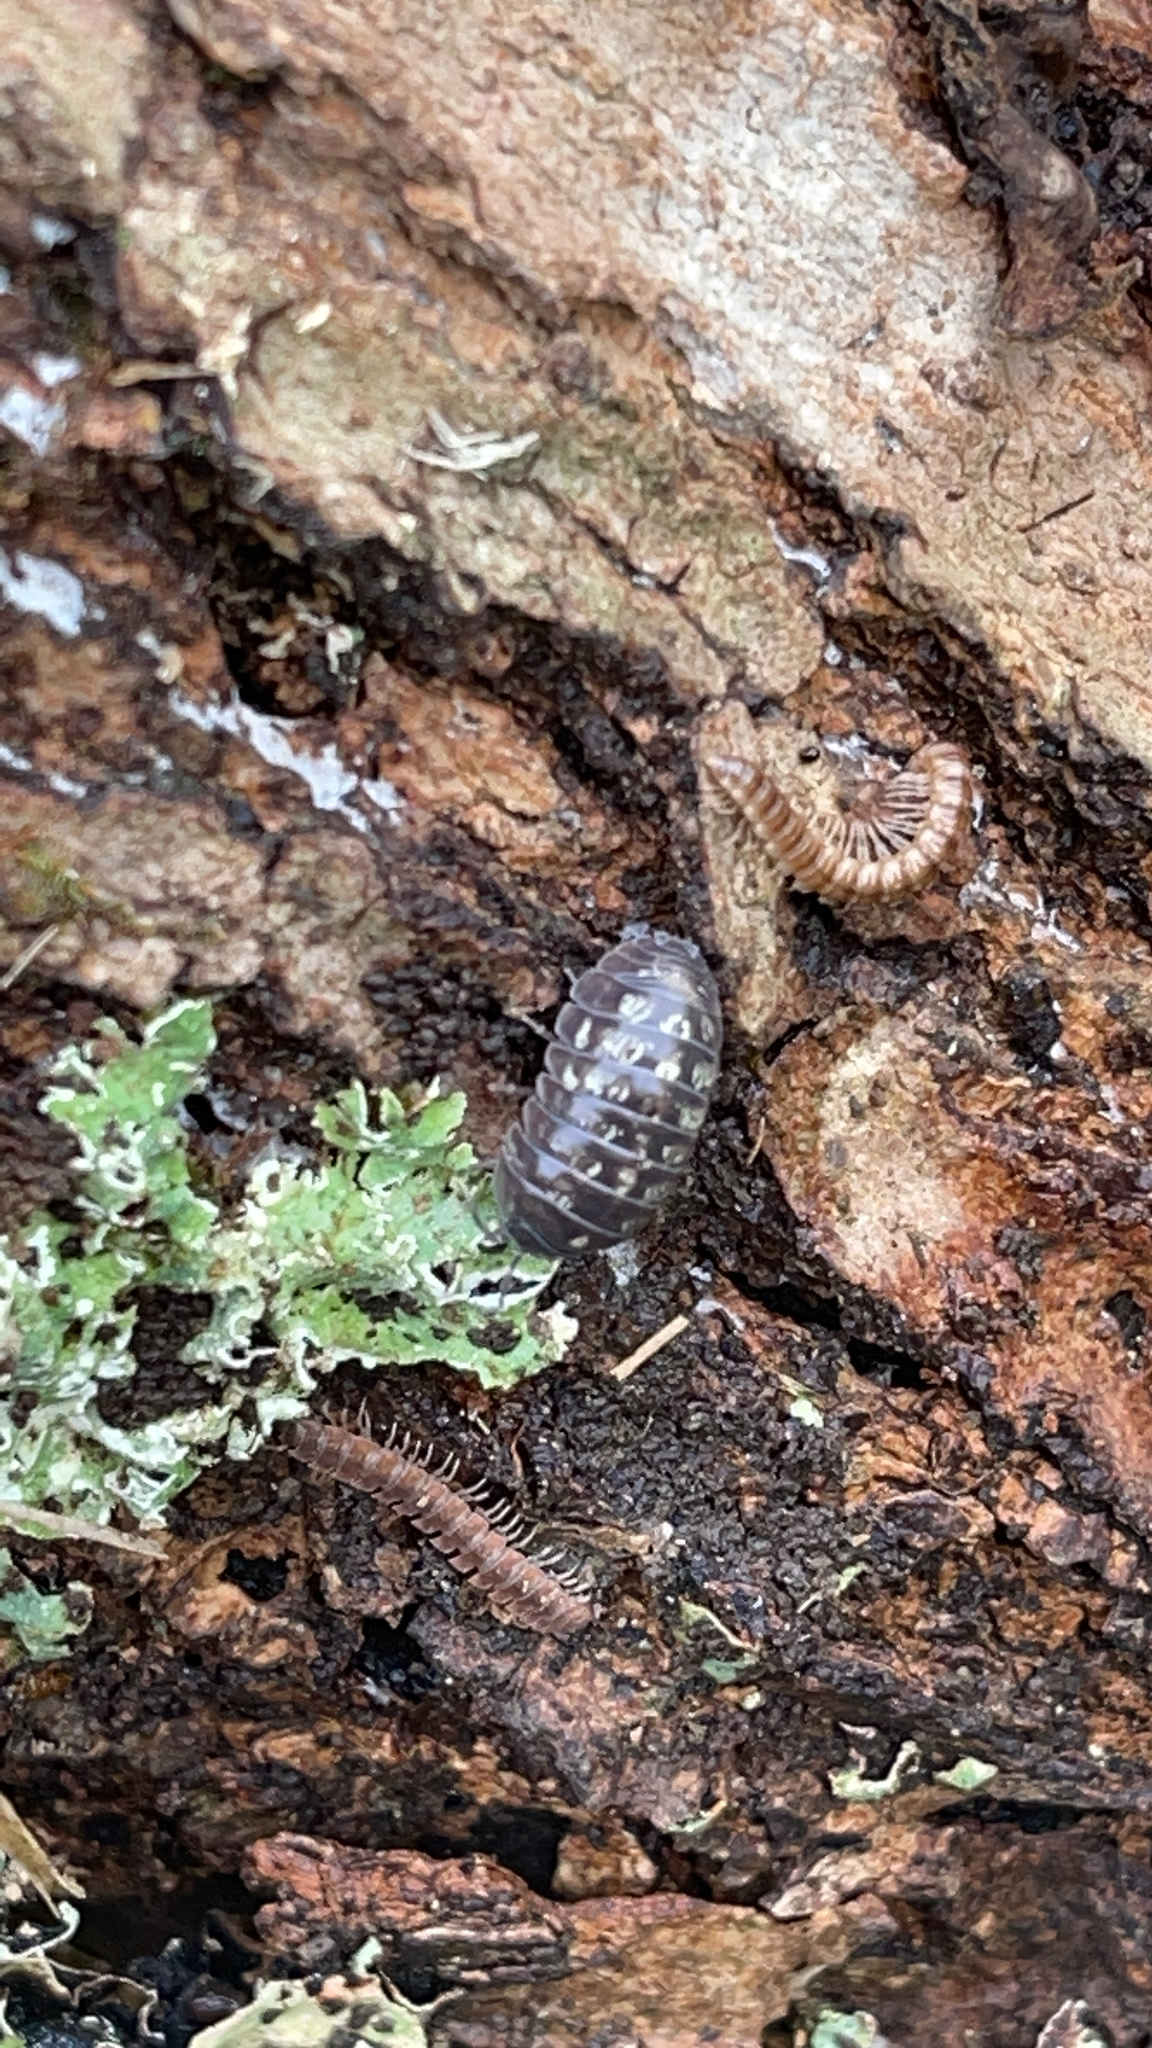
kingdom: Animalia
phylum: Arthropoda
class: Malacostraca
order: Isopoda
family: Armadillidiidae
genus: Armadillidium
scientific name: Armadillidium vulgare
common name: Common pill woodlouse
